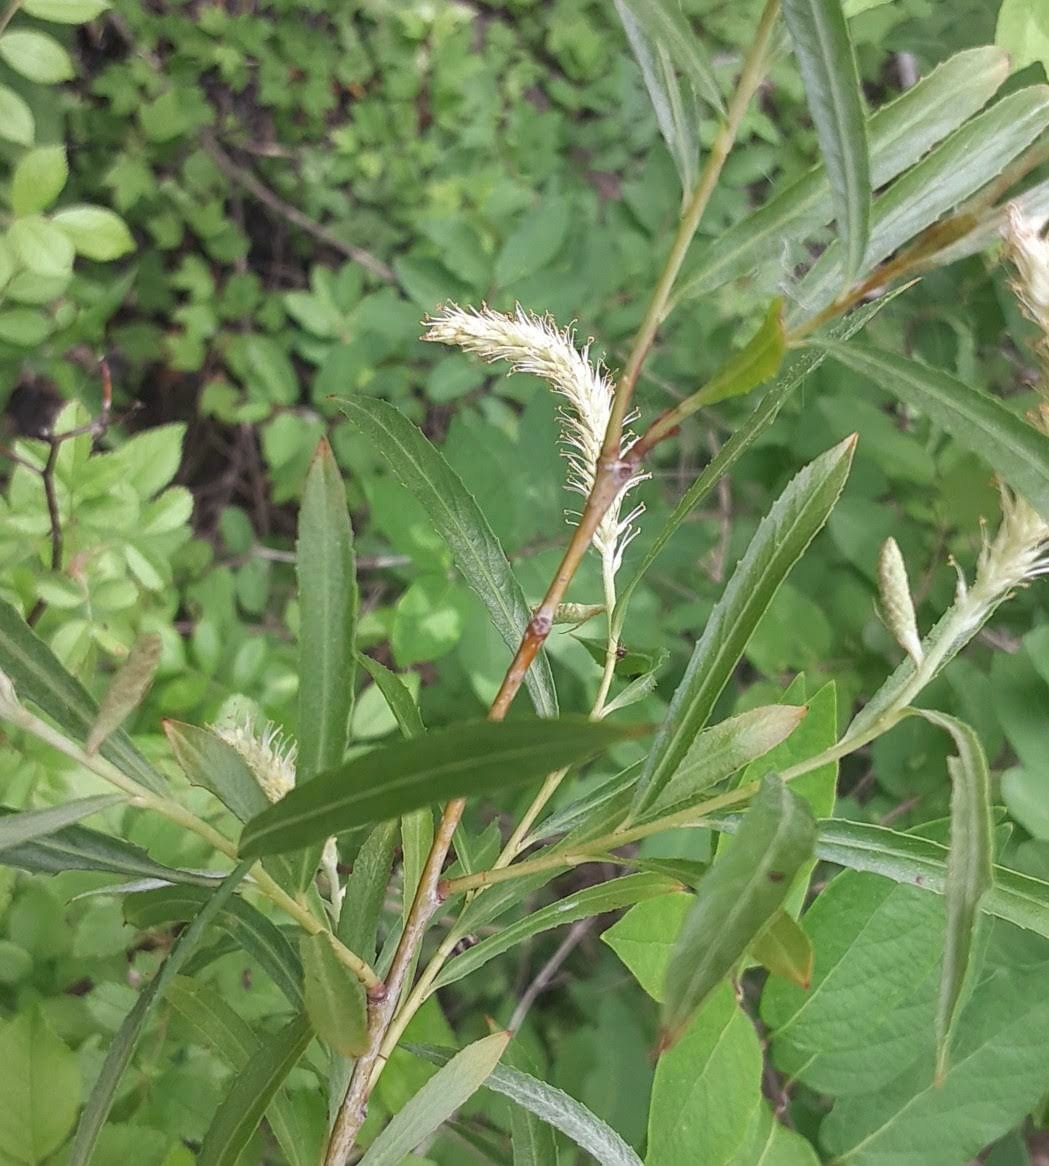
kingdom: Plantae
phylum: Tracheophyta
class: Magnoliopsida
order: Malpighiales
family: Salicaceae
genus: Salix
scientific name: Salix interior
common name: Sandbar willow
